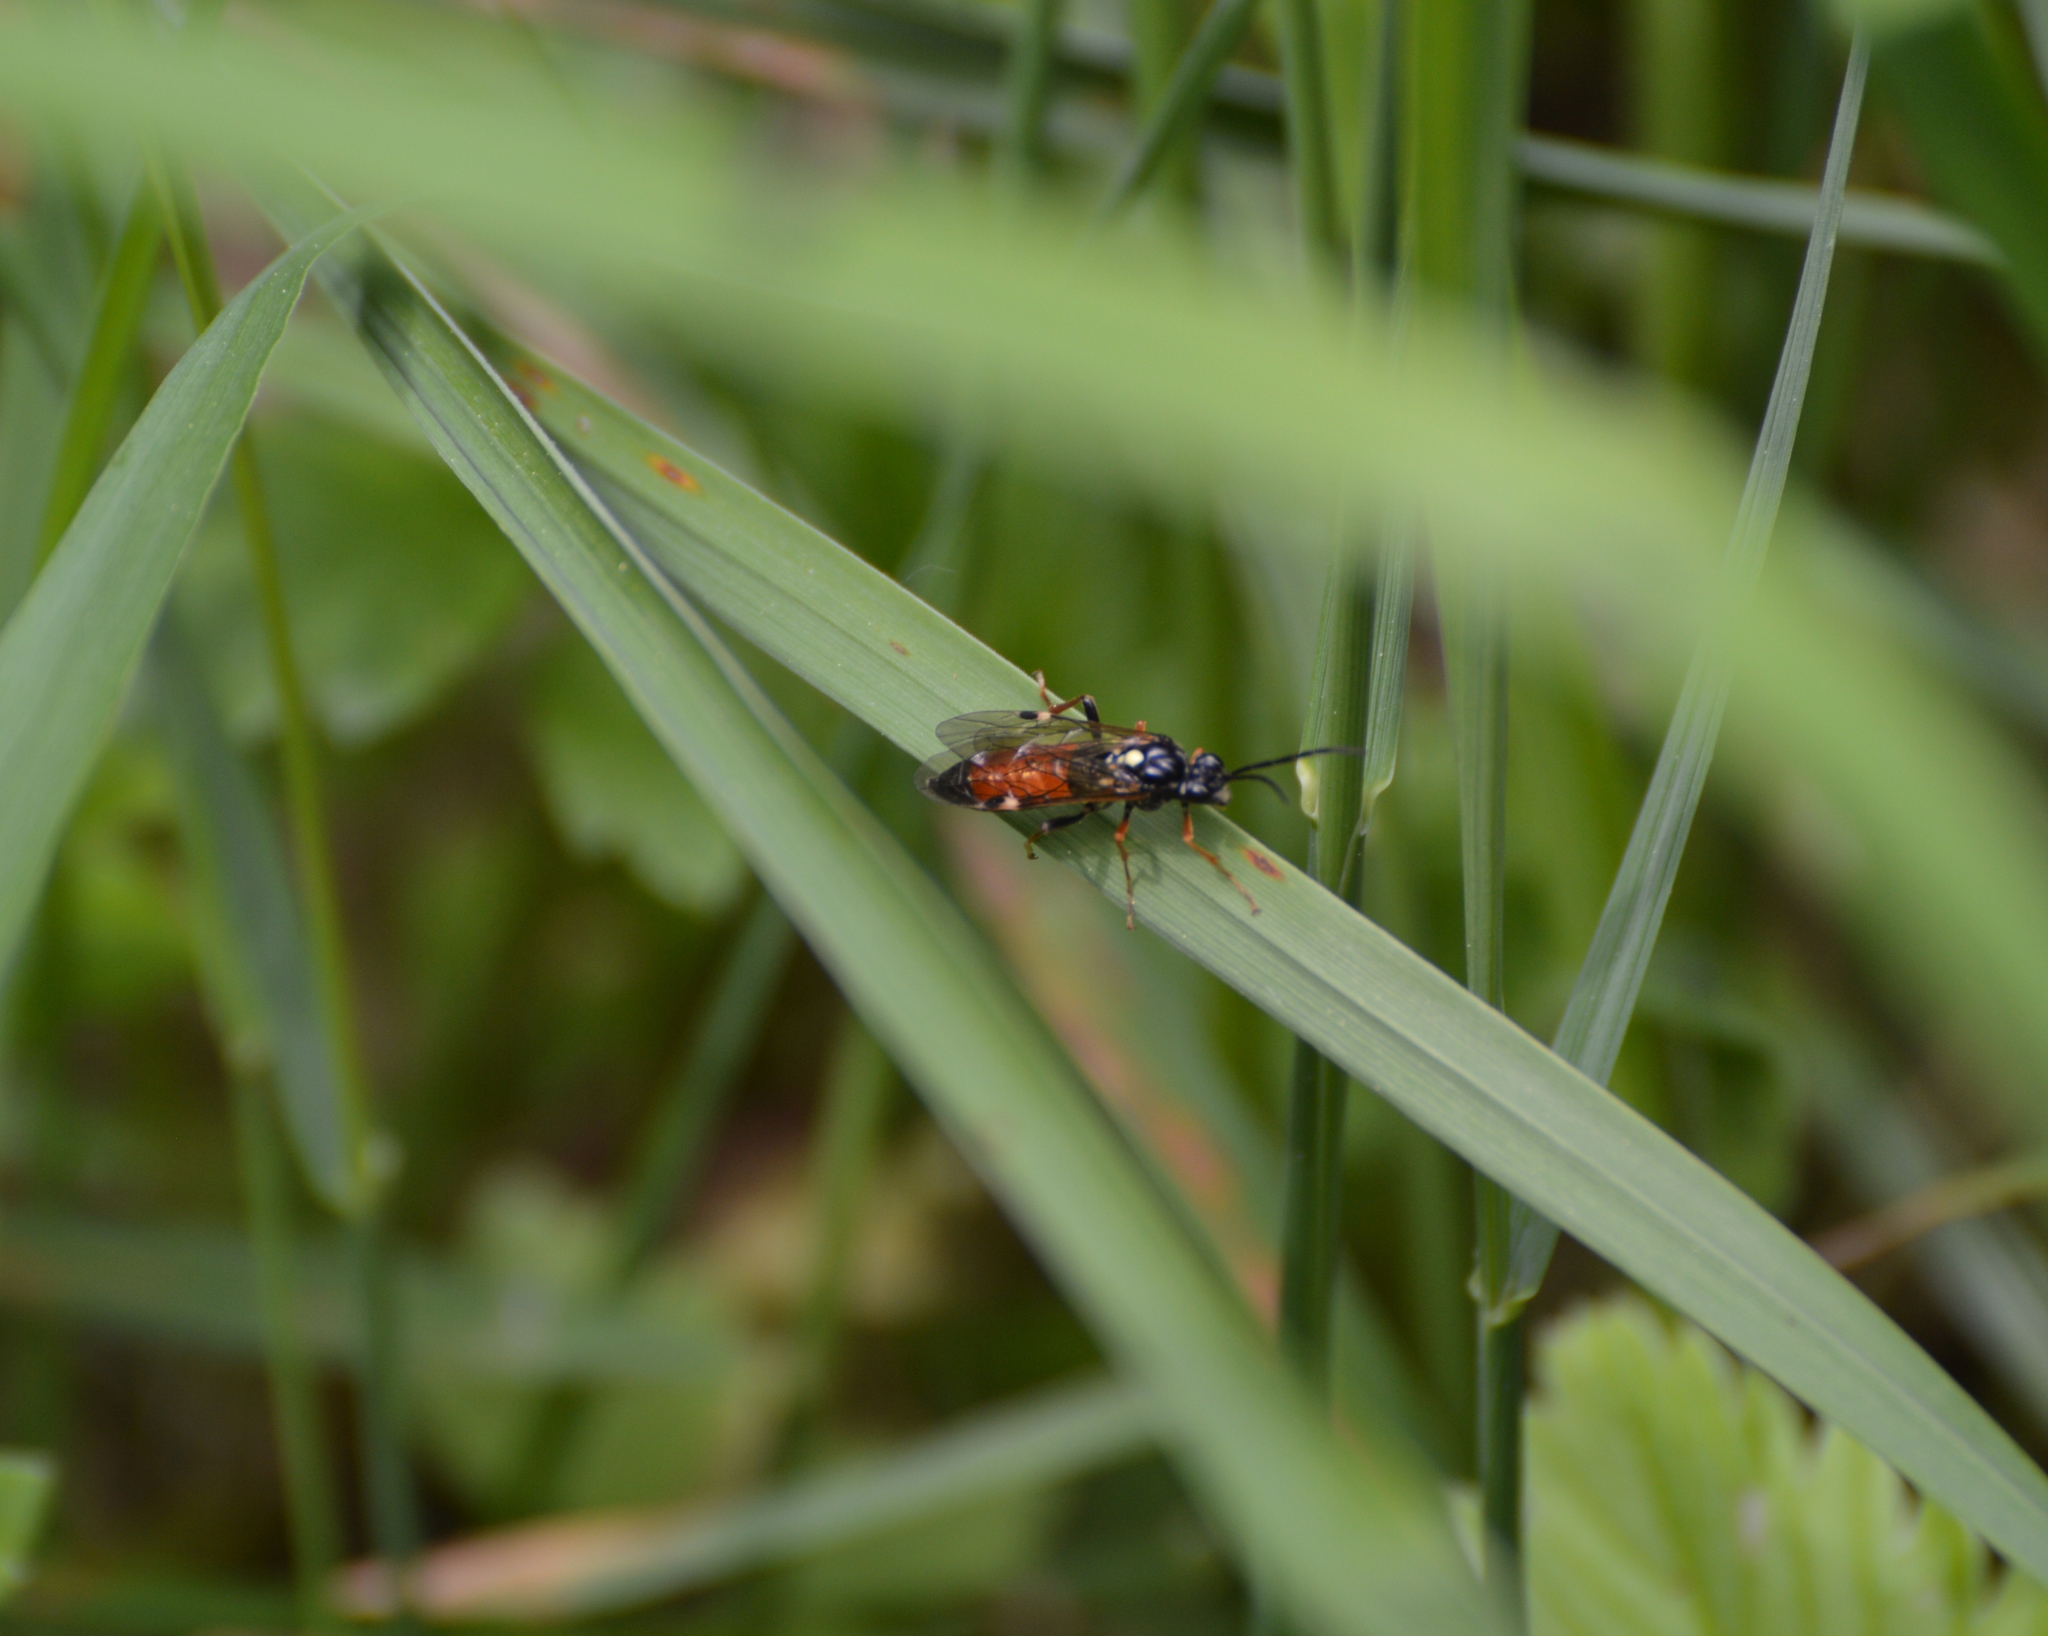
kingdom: Animalia
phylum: Arthropoda
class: Insecta
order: Hymenoptera
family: Tenthredinidae
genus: Tenthredopsis
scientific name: Tenthredopsis
